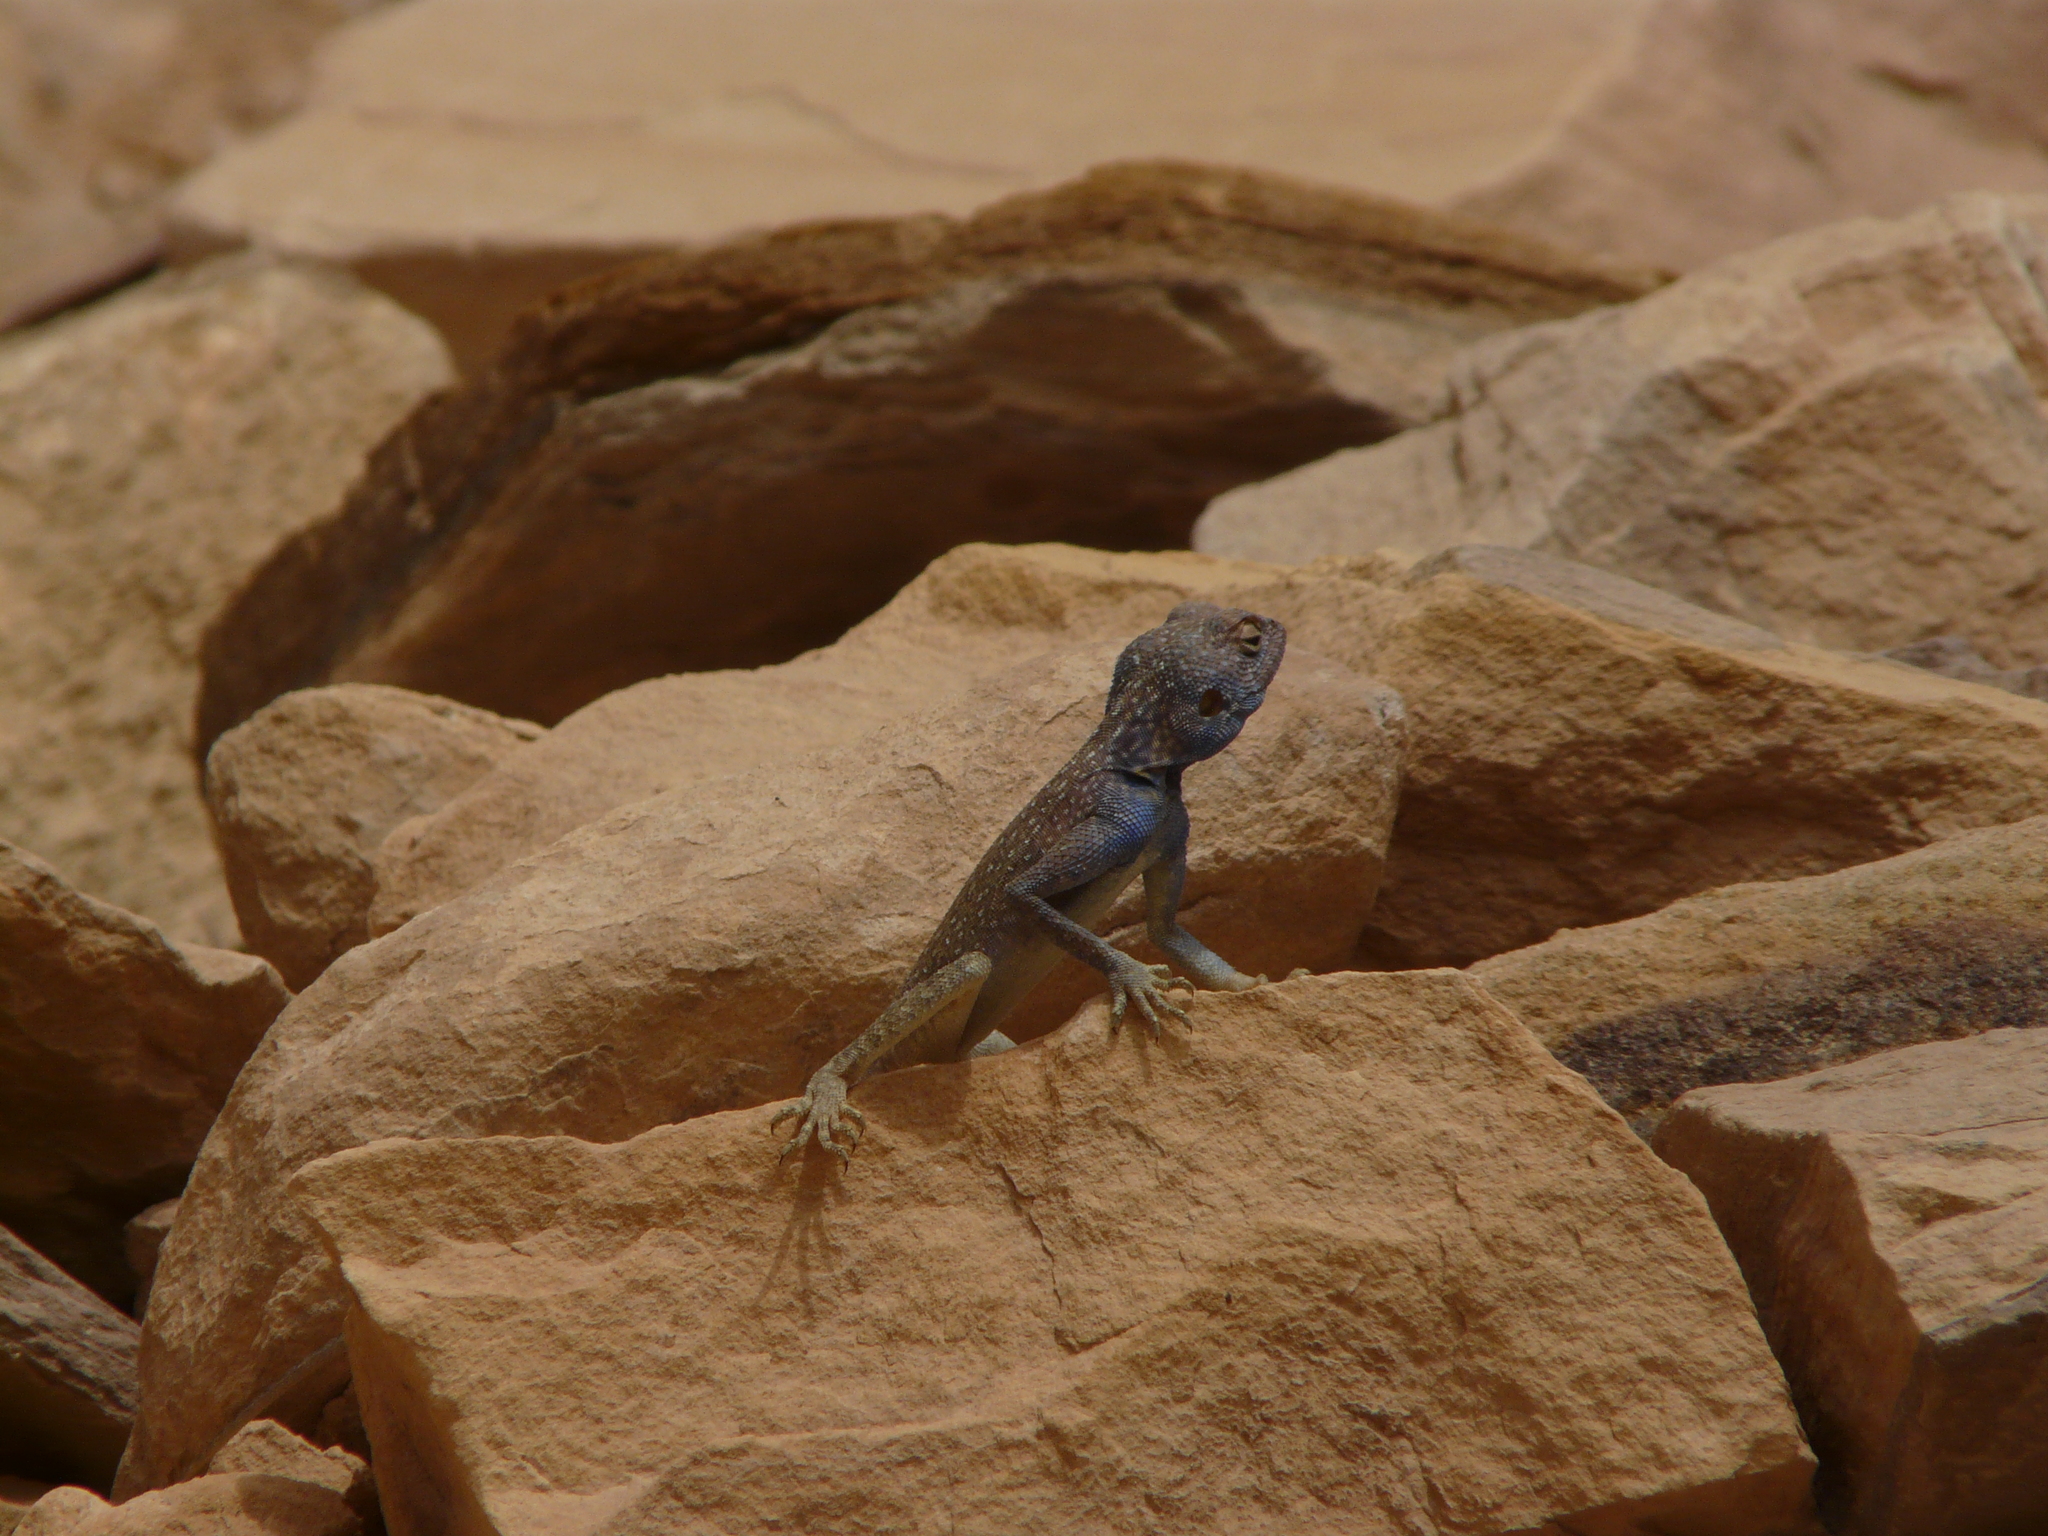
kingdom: Animalia
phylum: Chordata
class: Squamata
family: Agamidae
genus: Pseudotrapelus
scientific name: Pseudotrapelus sinaitus
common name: Sinai agama
